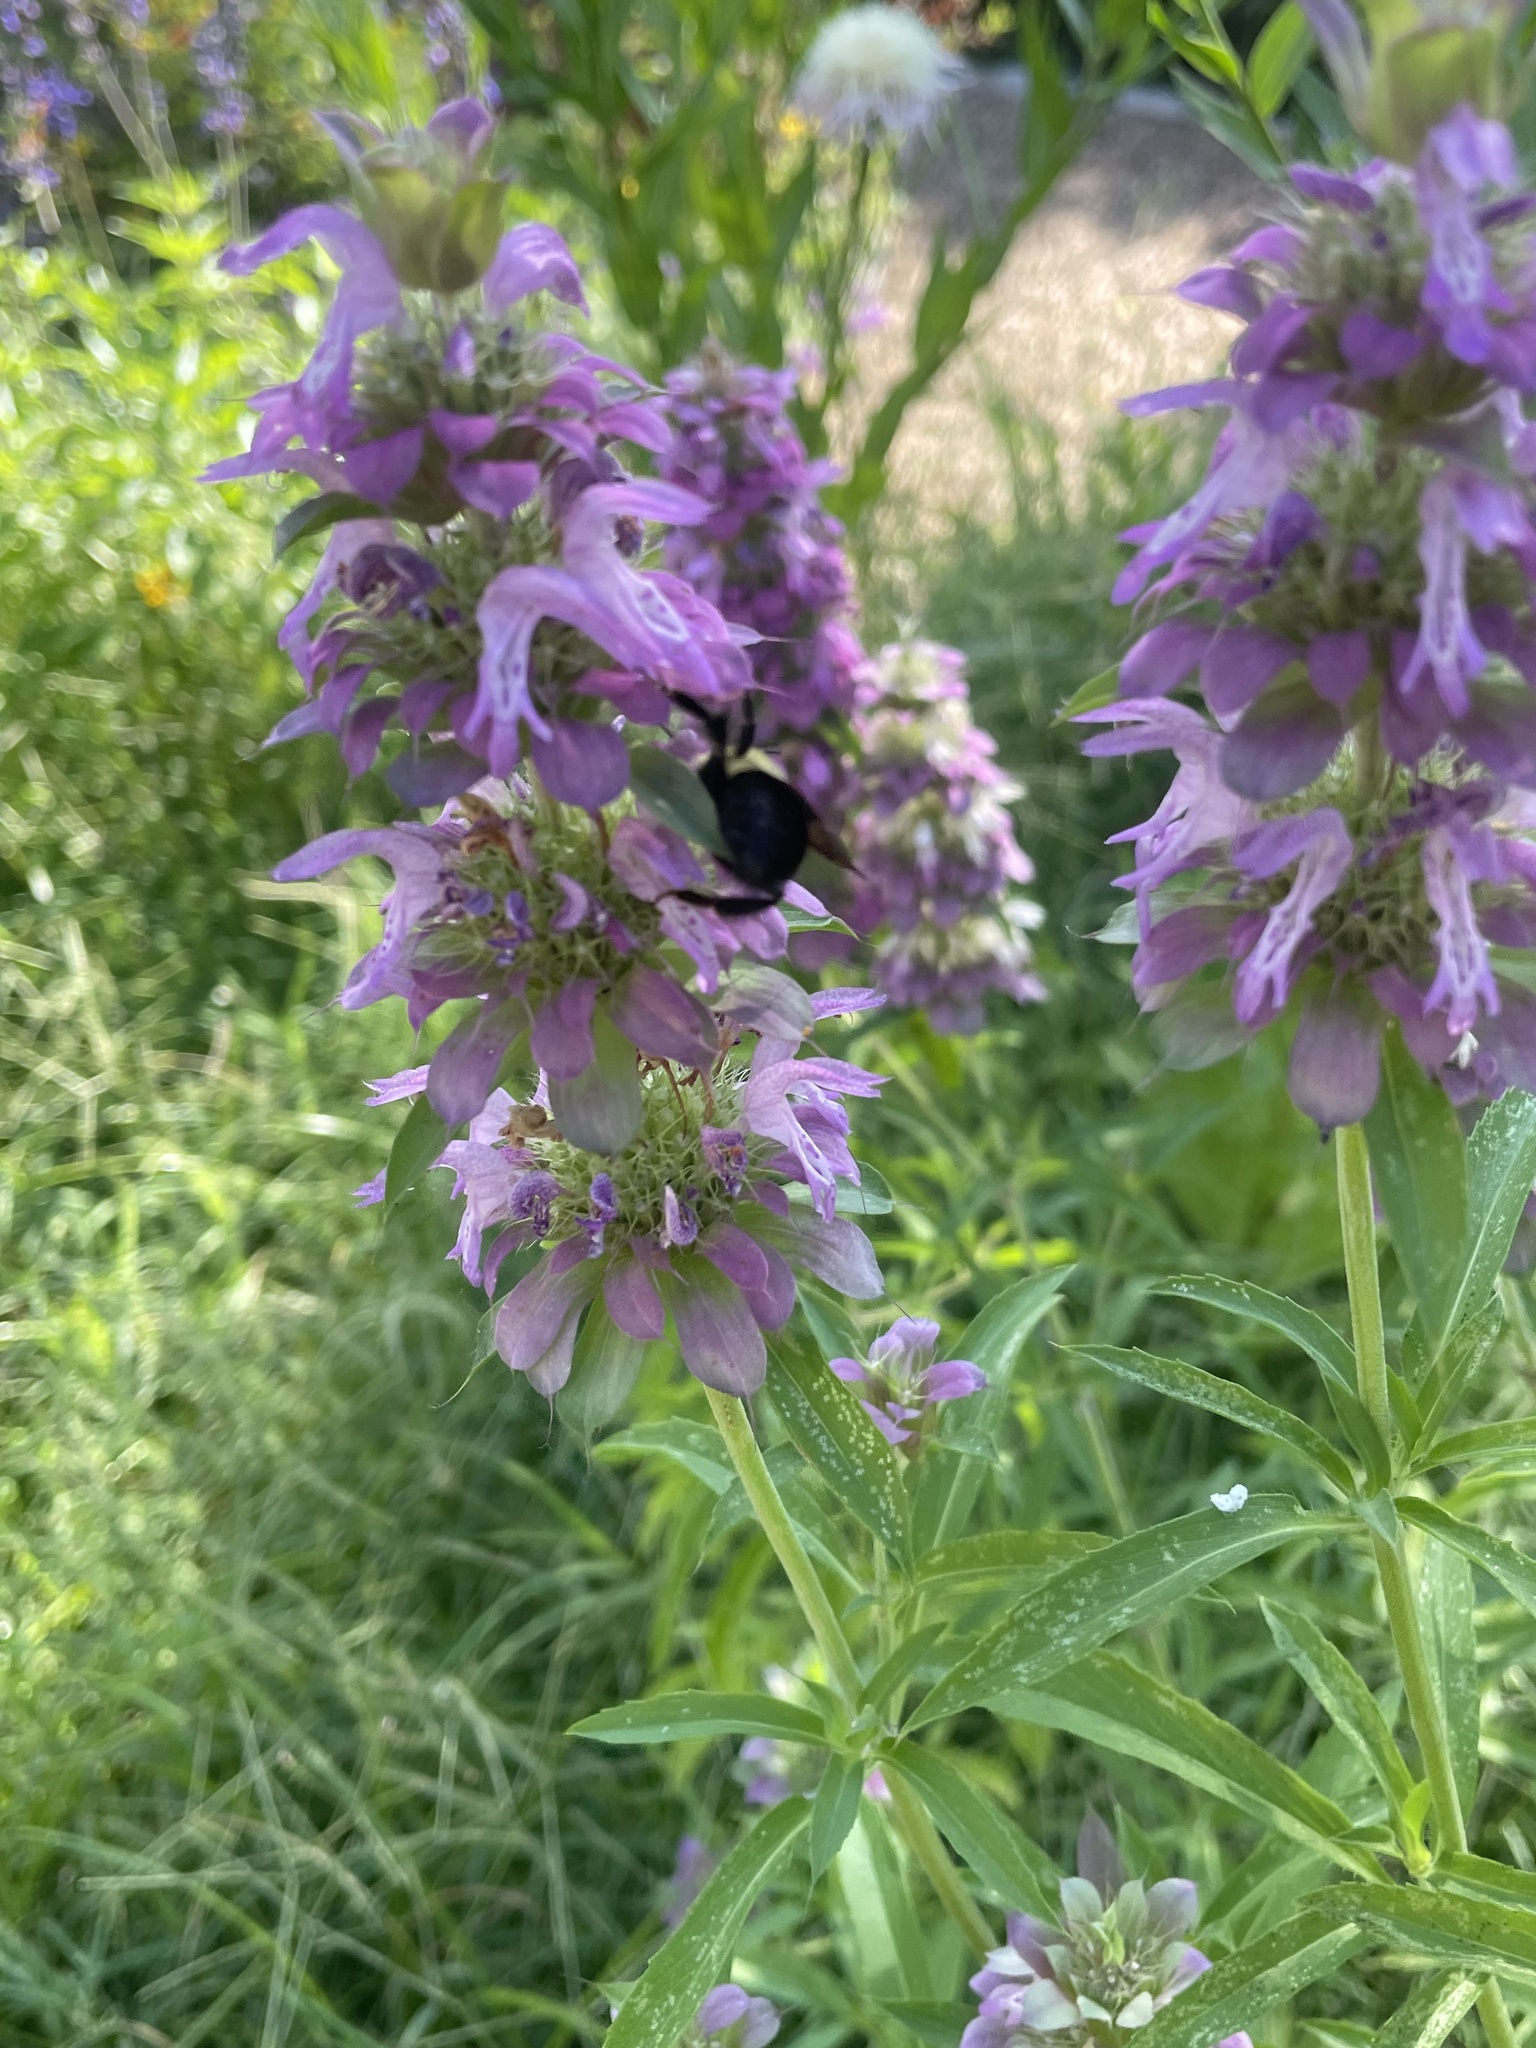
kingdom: Animalia
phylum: Arthropoda
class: Insecta
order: Hymenoptera
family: Apidae
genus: Bombus
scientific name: Bombus griseocollis
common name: Brown-belted bumble bee
